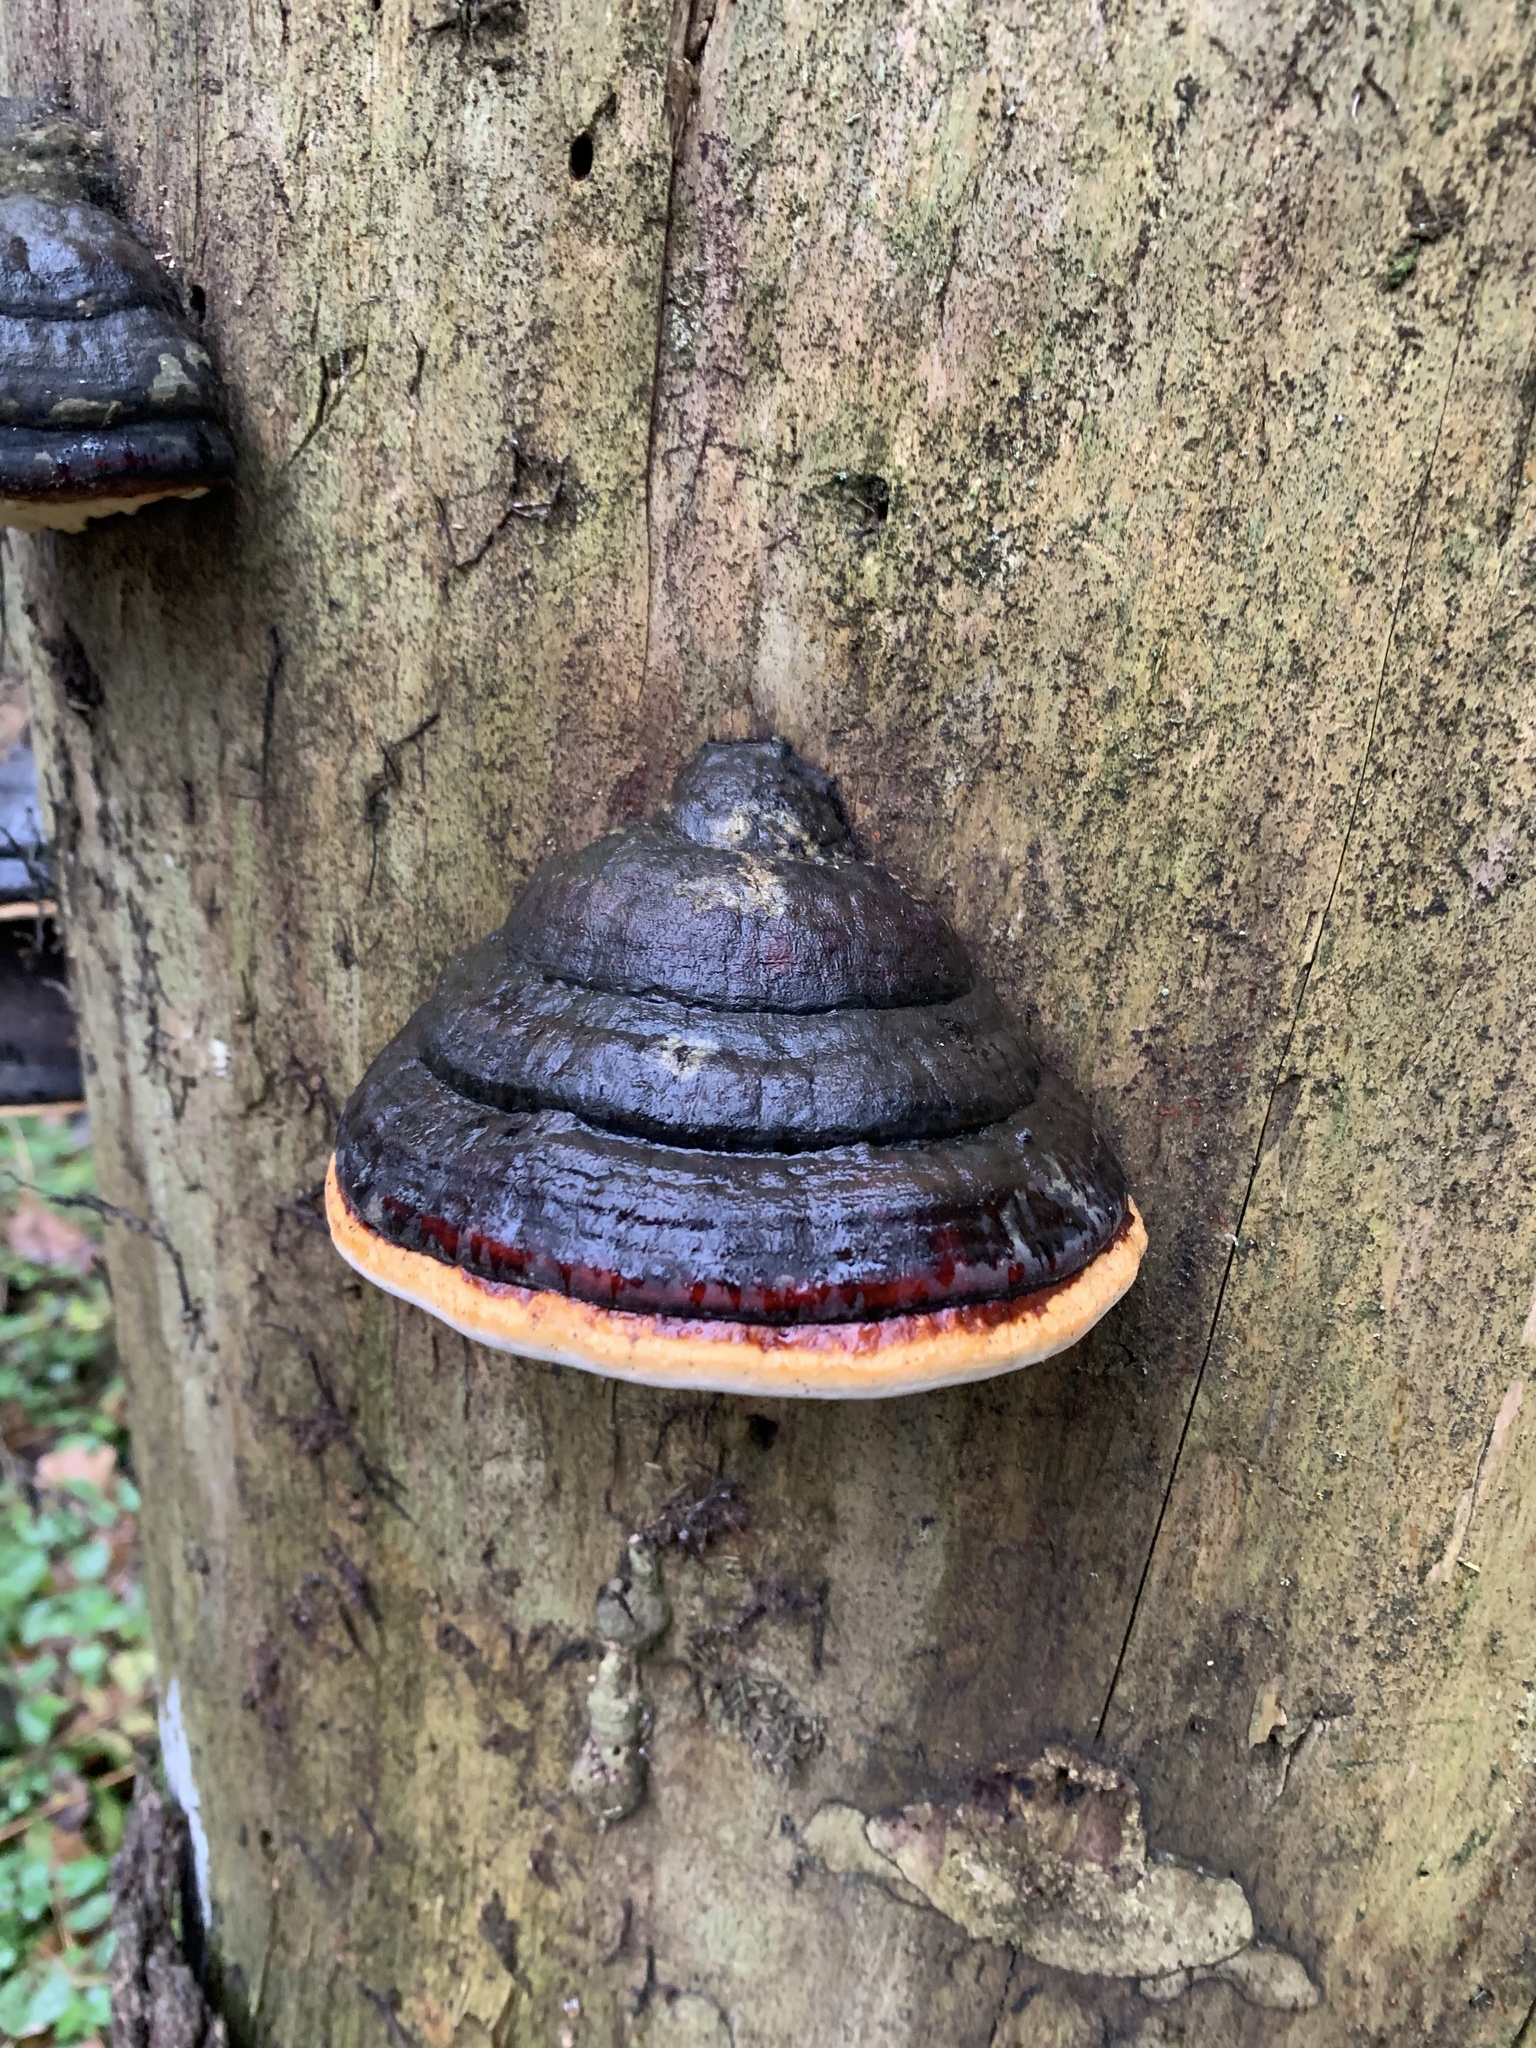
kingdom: Fungi
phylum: Basidiomycota
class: Agaricomycetes
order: Polyporales
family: Fomitopsidaceae
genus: Fomitopsis
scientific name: Fomitopsis pinicola
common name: Red-belted bracket
